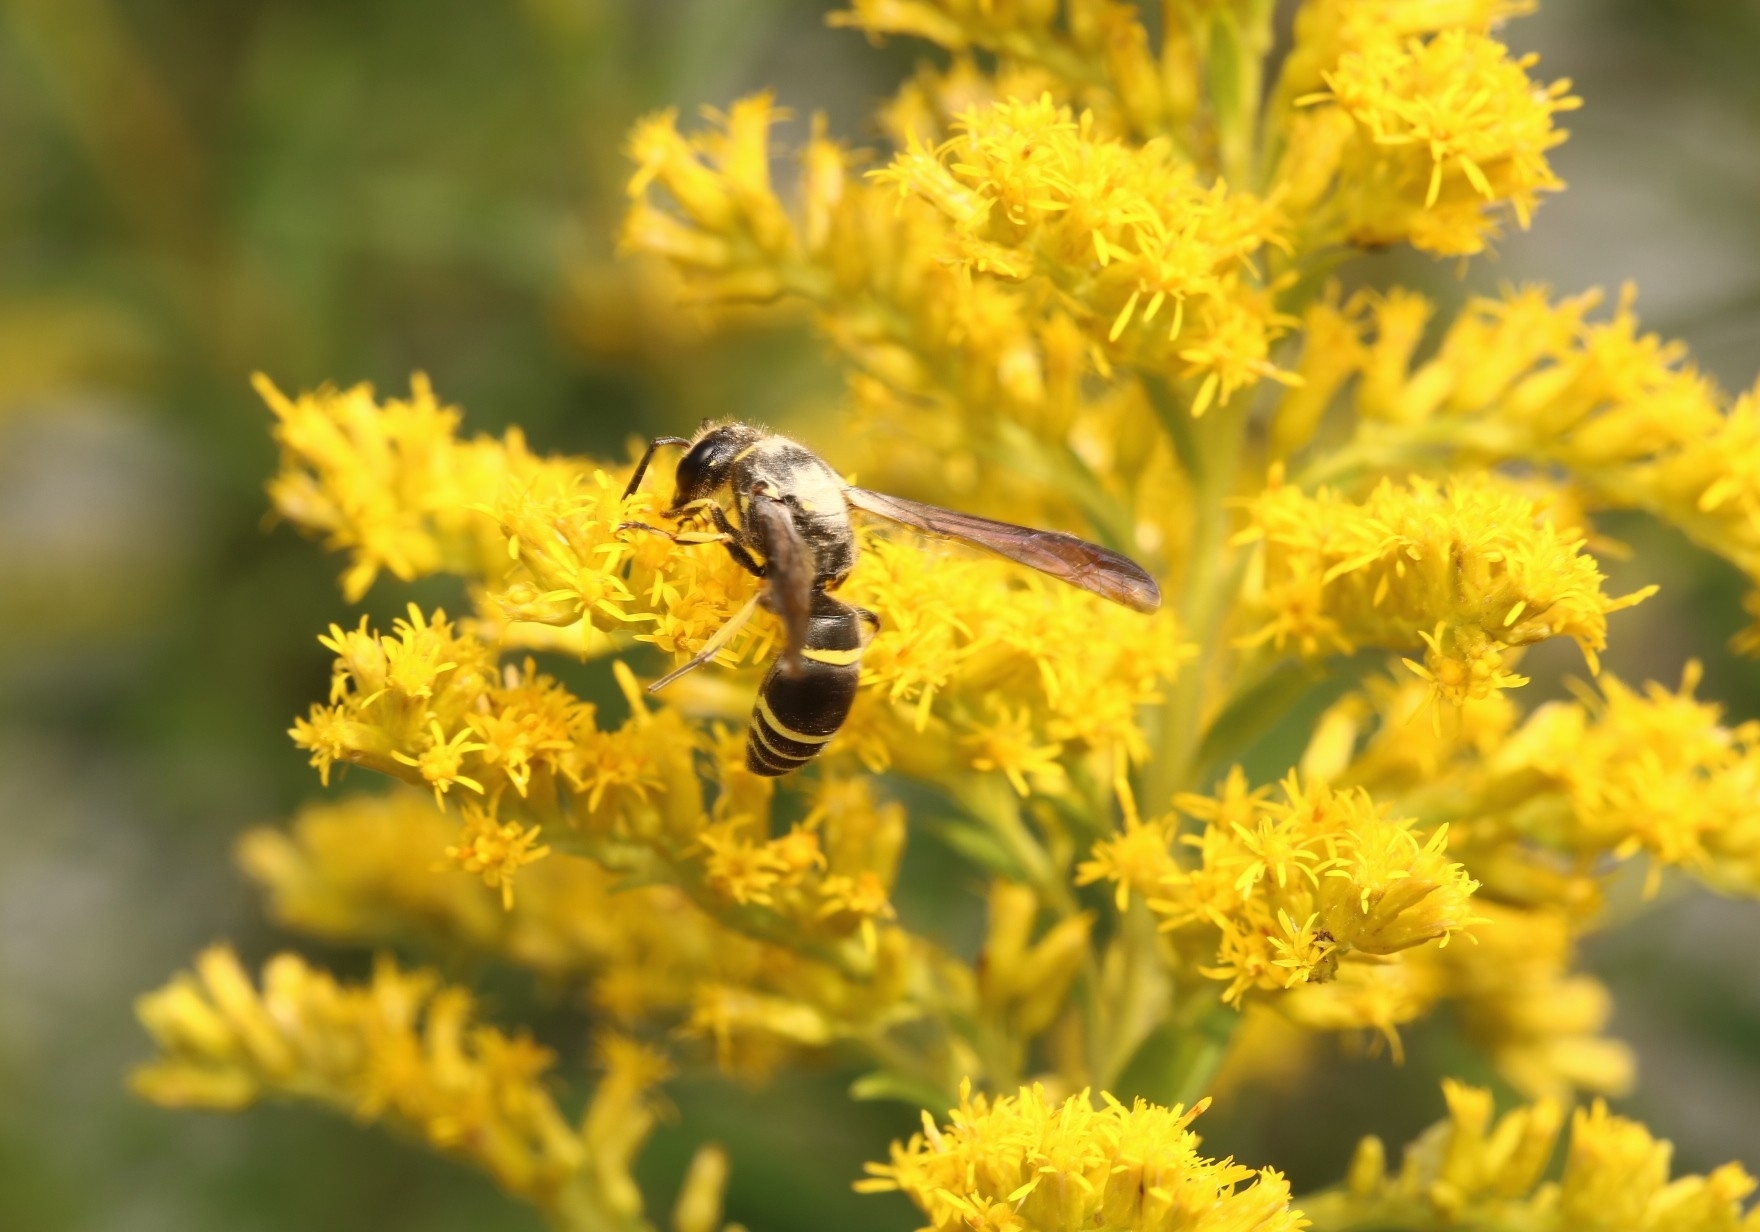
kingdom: Animalia
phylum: Arthropoda
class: Insecta
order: Hymenoptera
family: Vespidae
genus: Ancistrocerus
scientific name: Ancistrocerus
